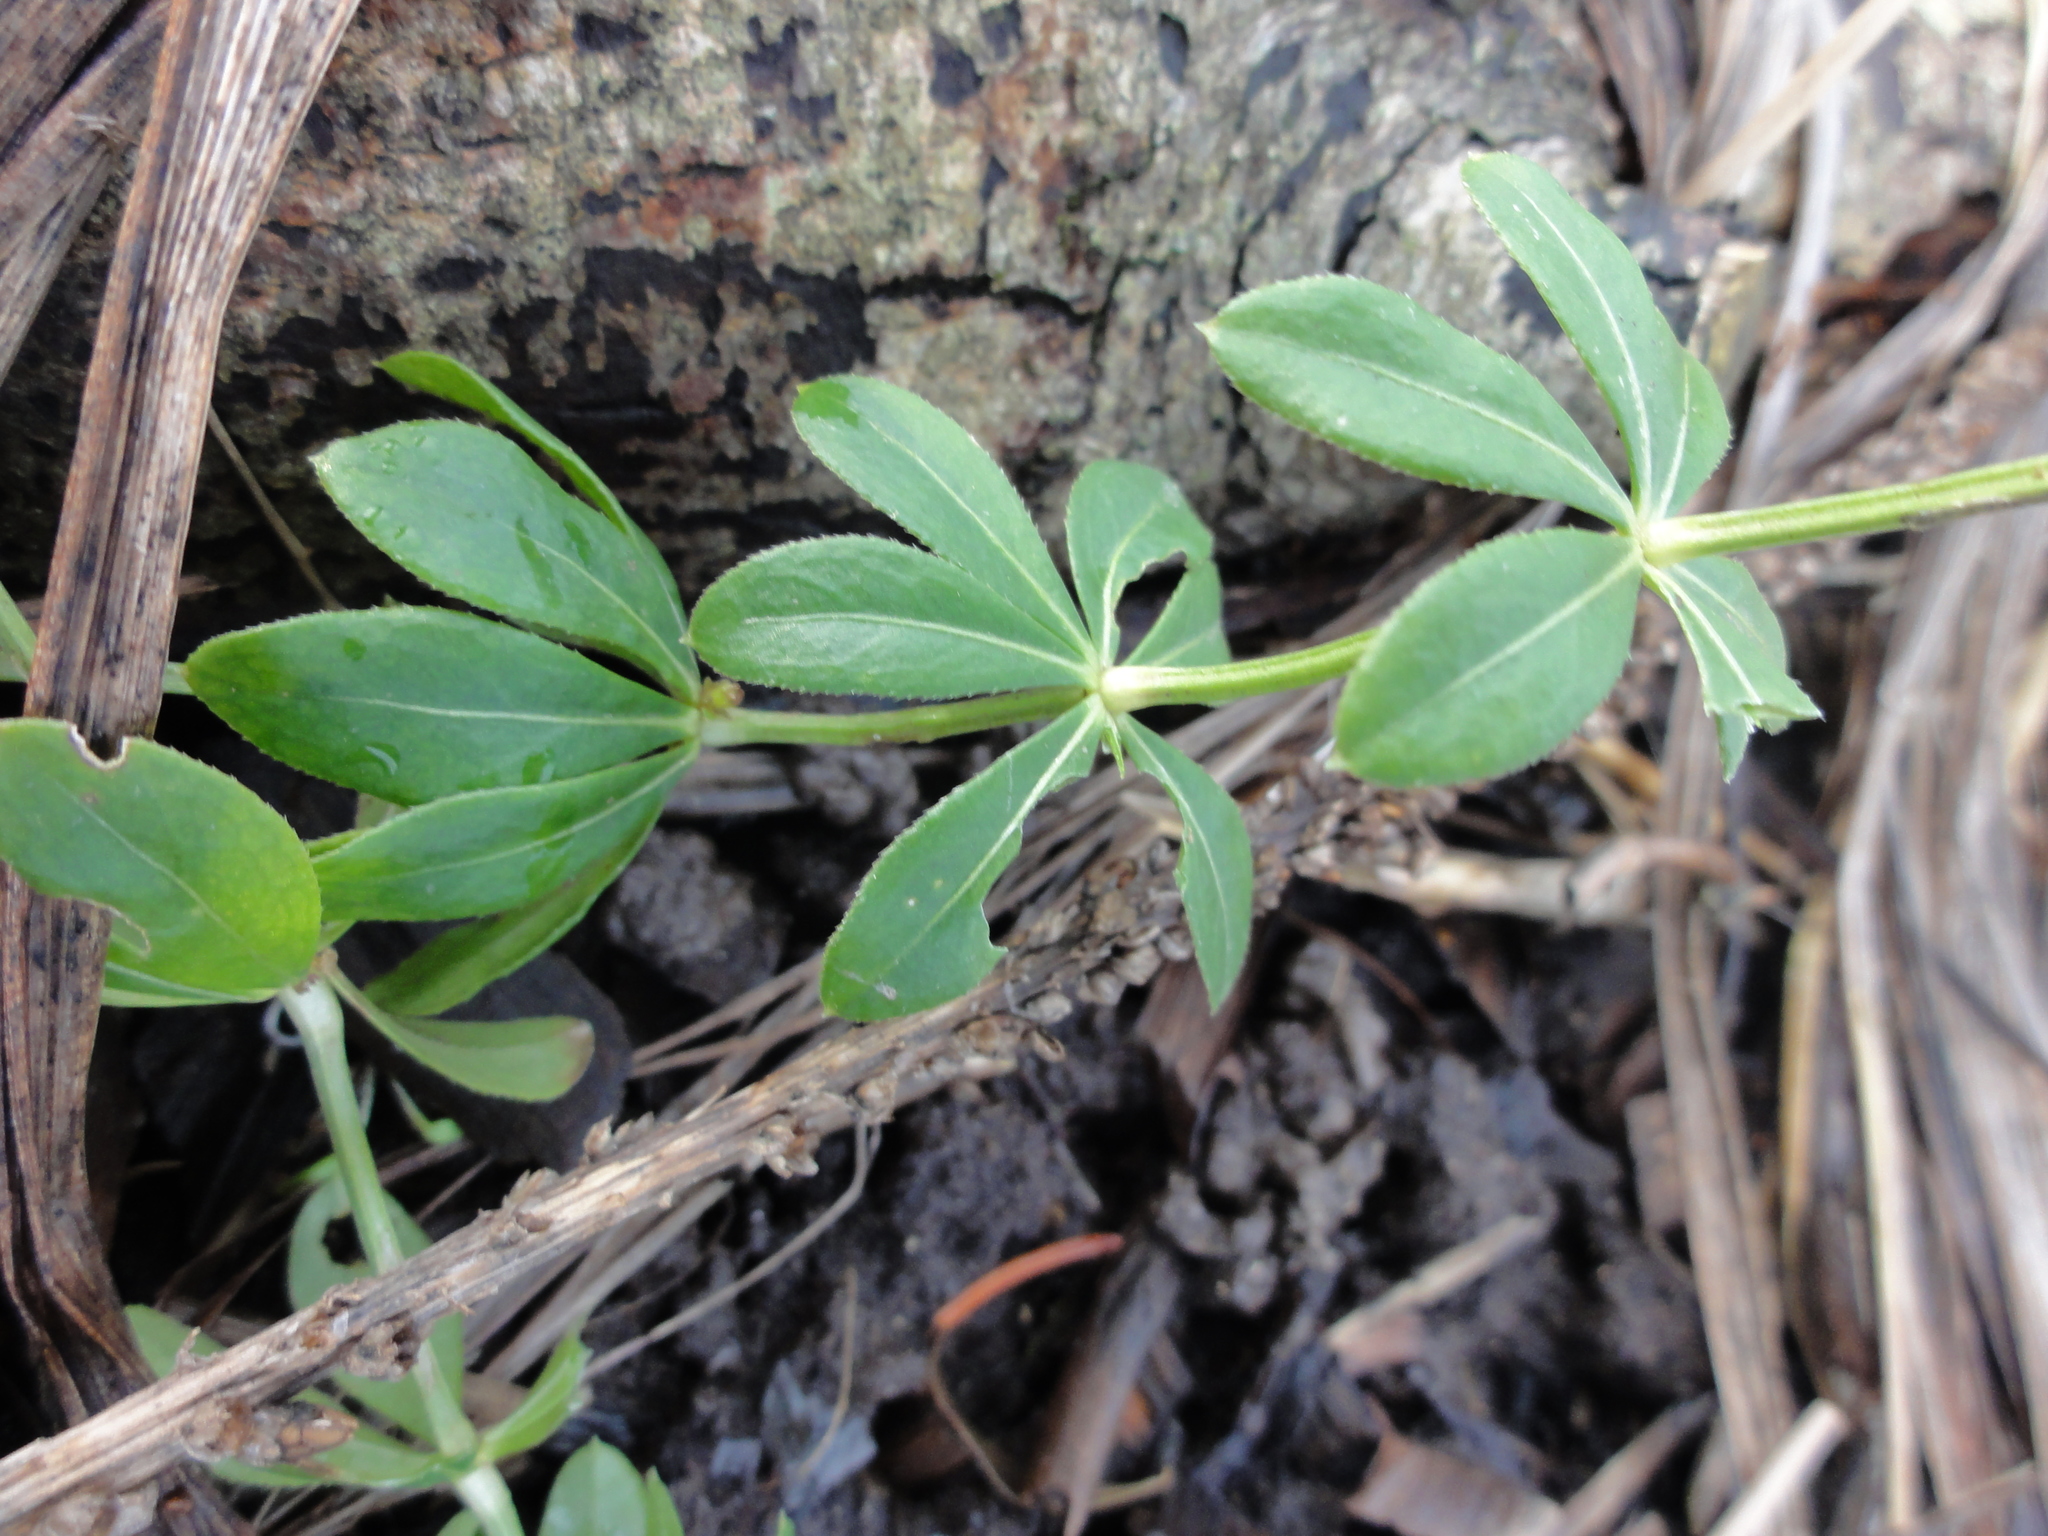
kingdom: Plantae
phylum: Tracheophyta
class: Magnoliopsida
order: Gentianales
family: Rubiaceae
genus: Galium
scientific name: Galium odoratum
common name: Sweet woodruff
